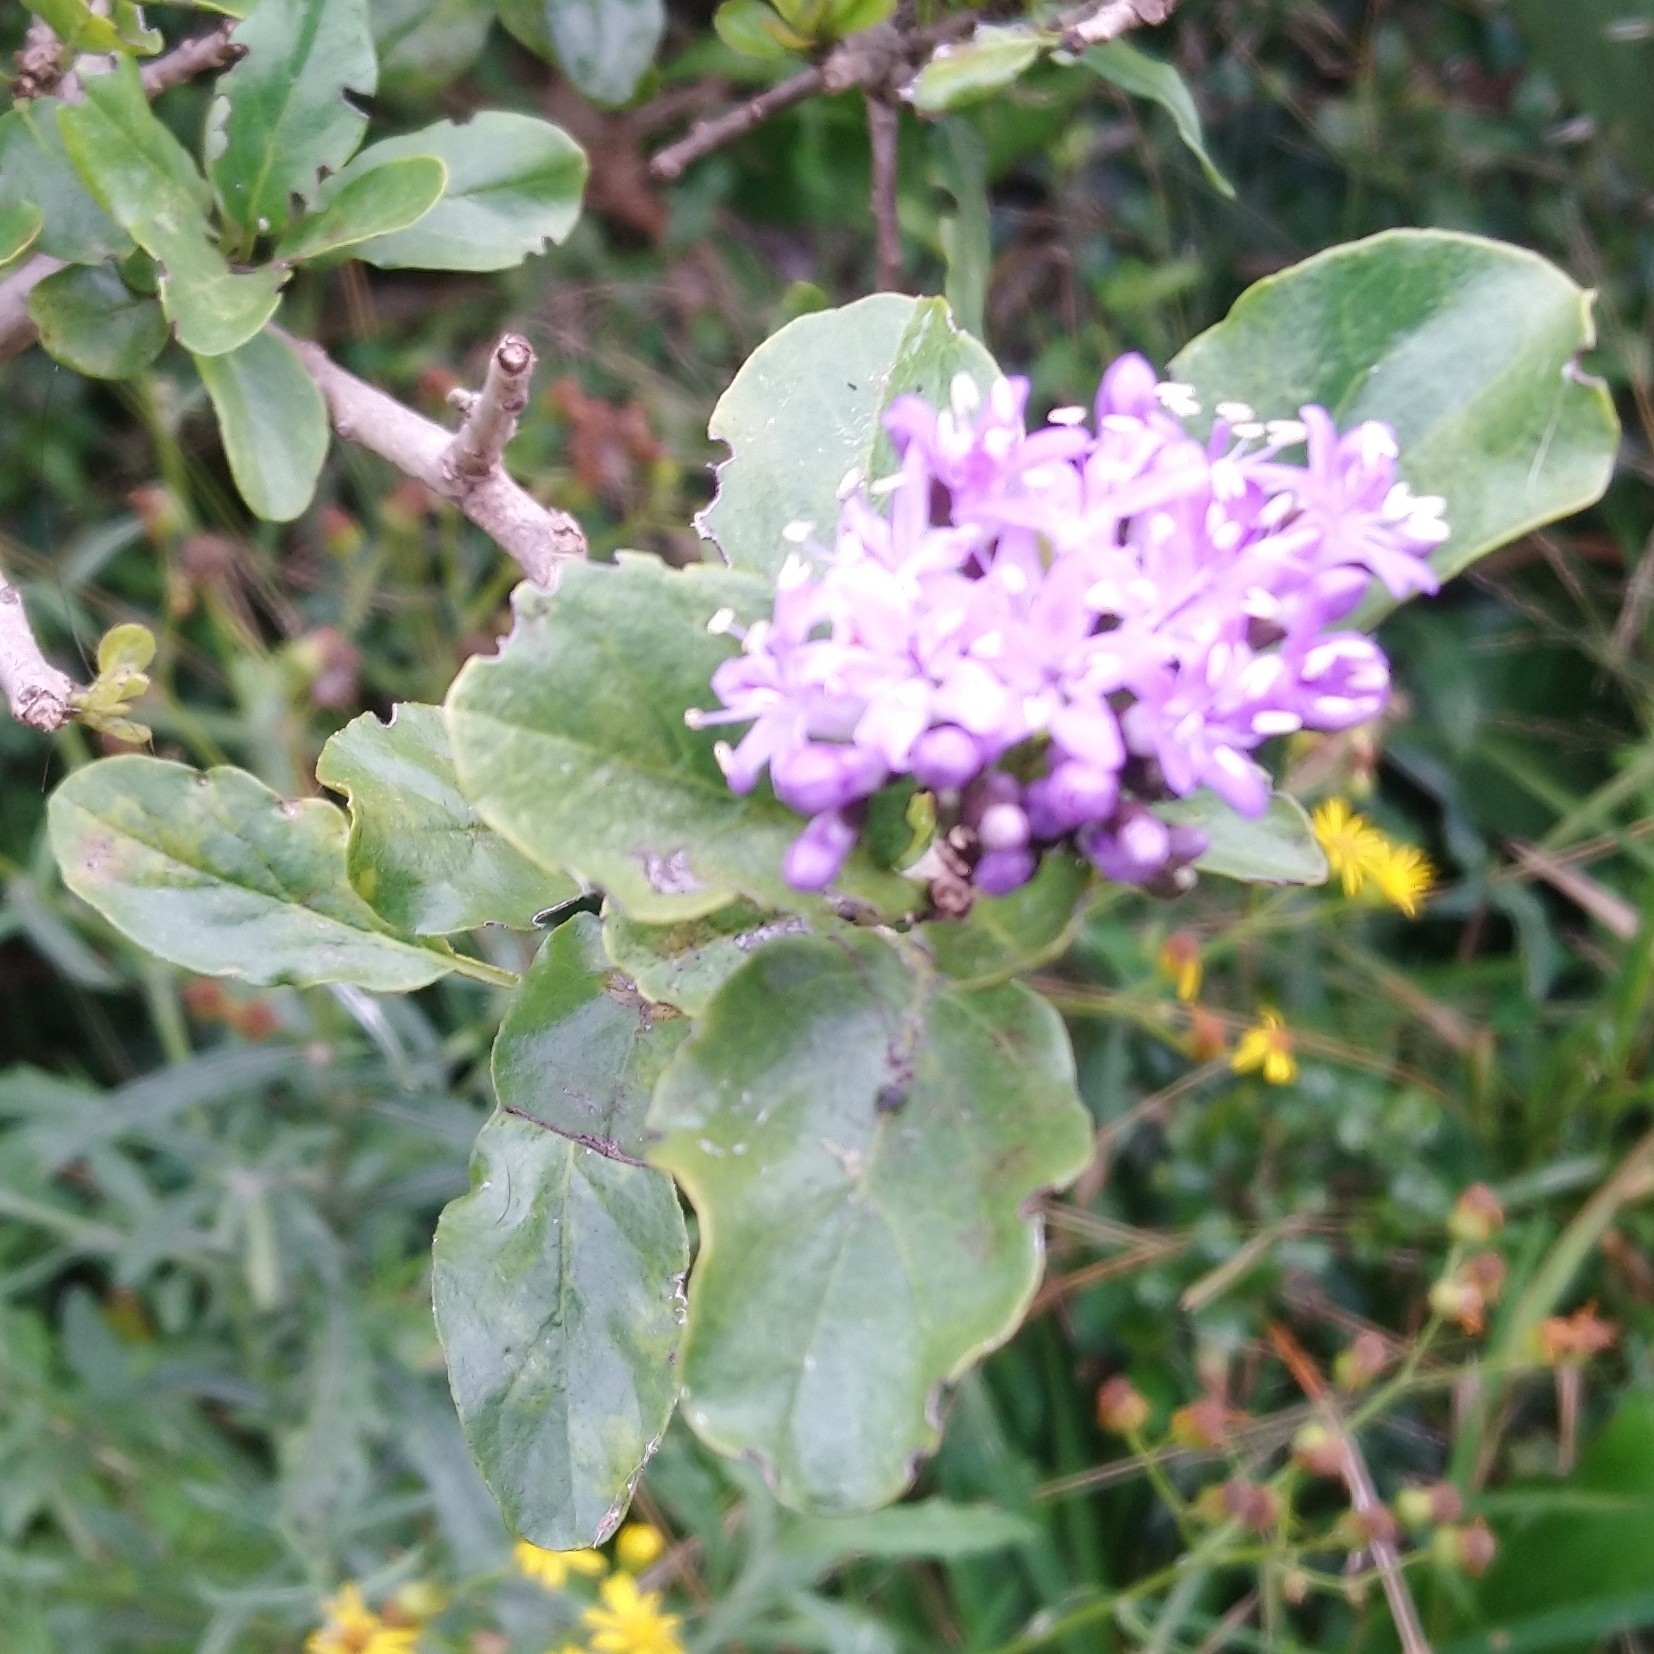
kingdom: Plantae
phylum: Tracheophyta
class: Magnoliopsida
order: Boraginales
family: Ehretiaceae
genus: Ehretia
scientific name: Ehretia rigida
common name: Cape lilac
